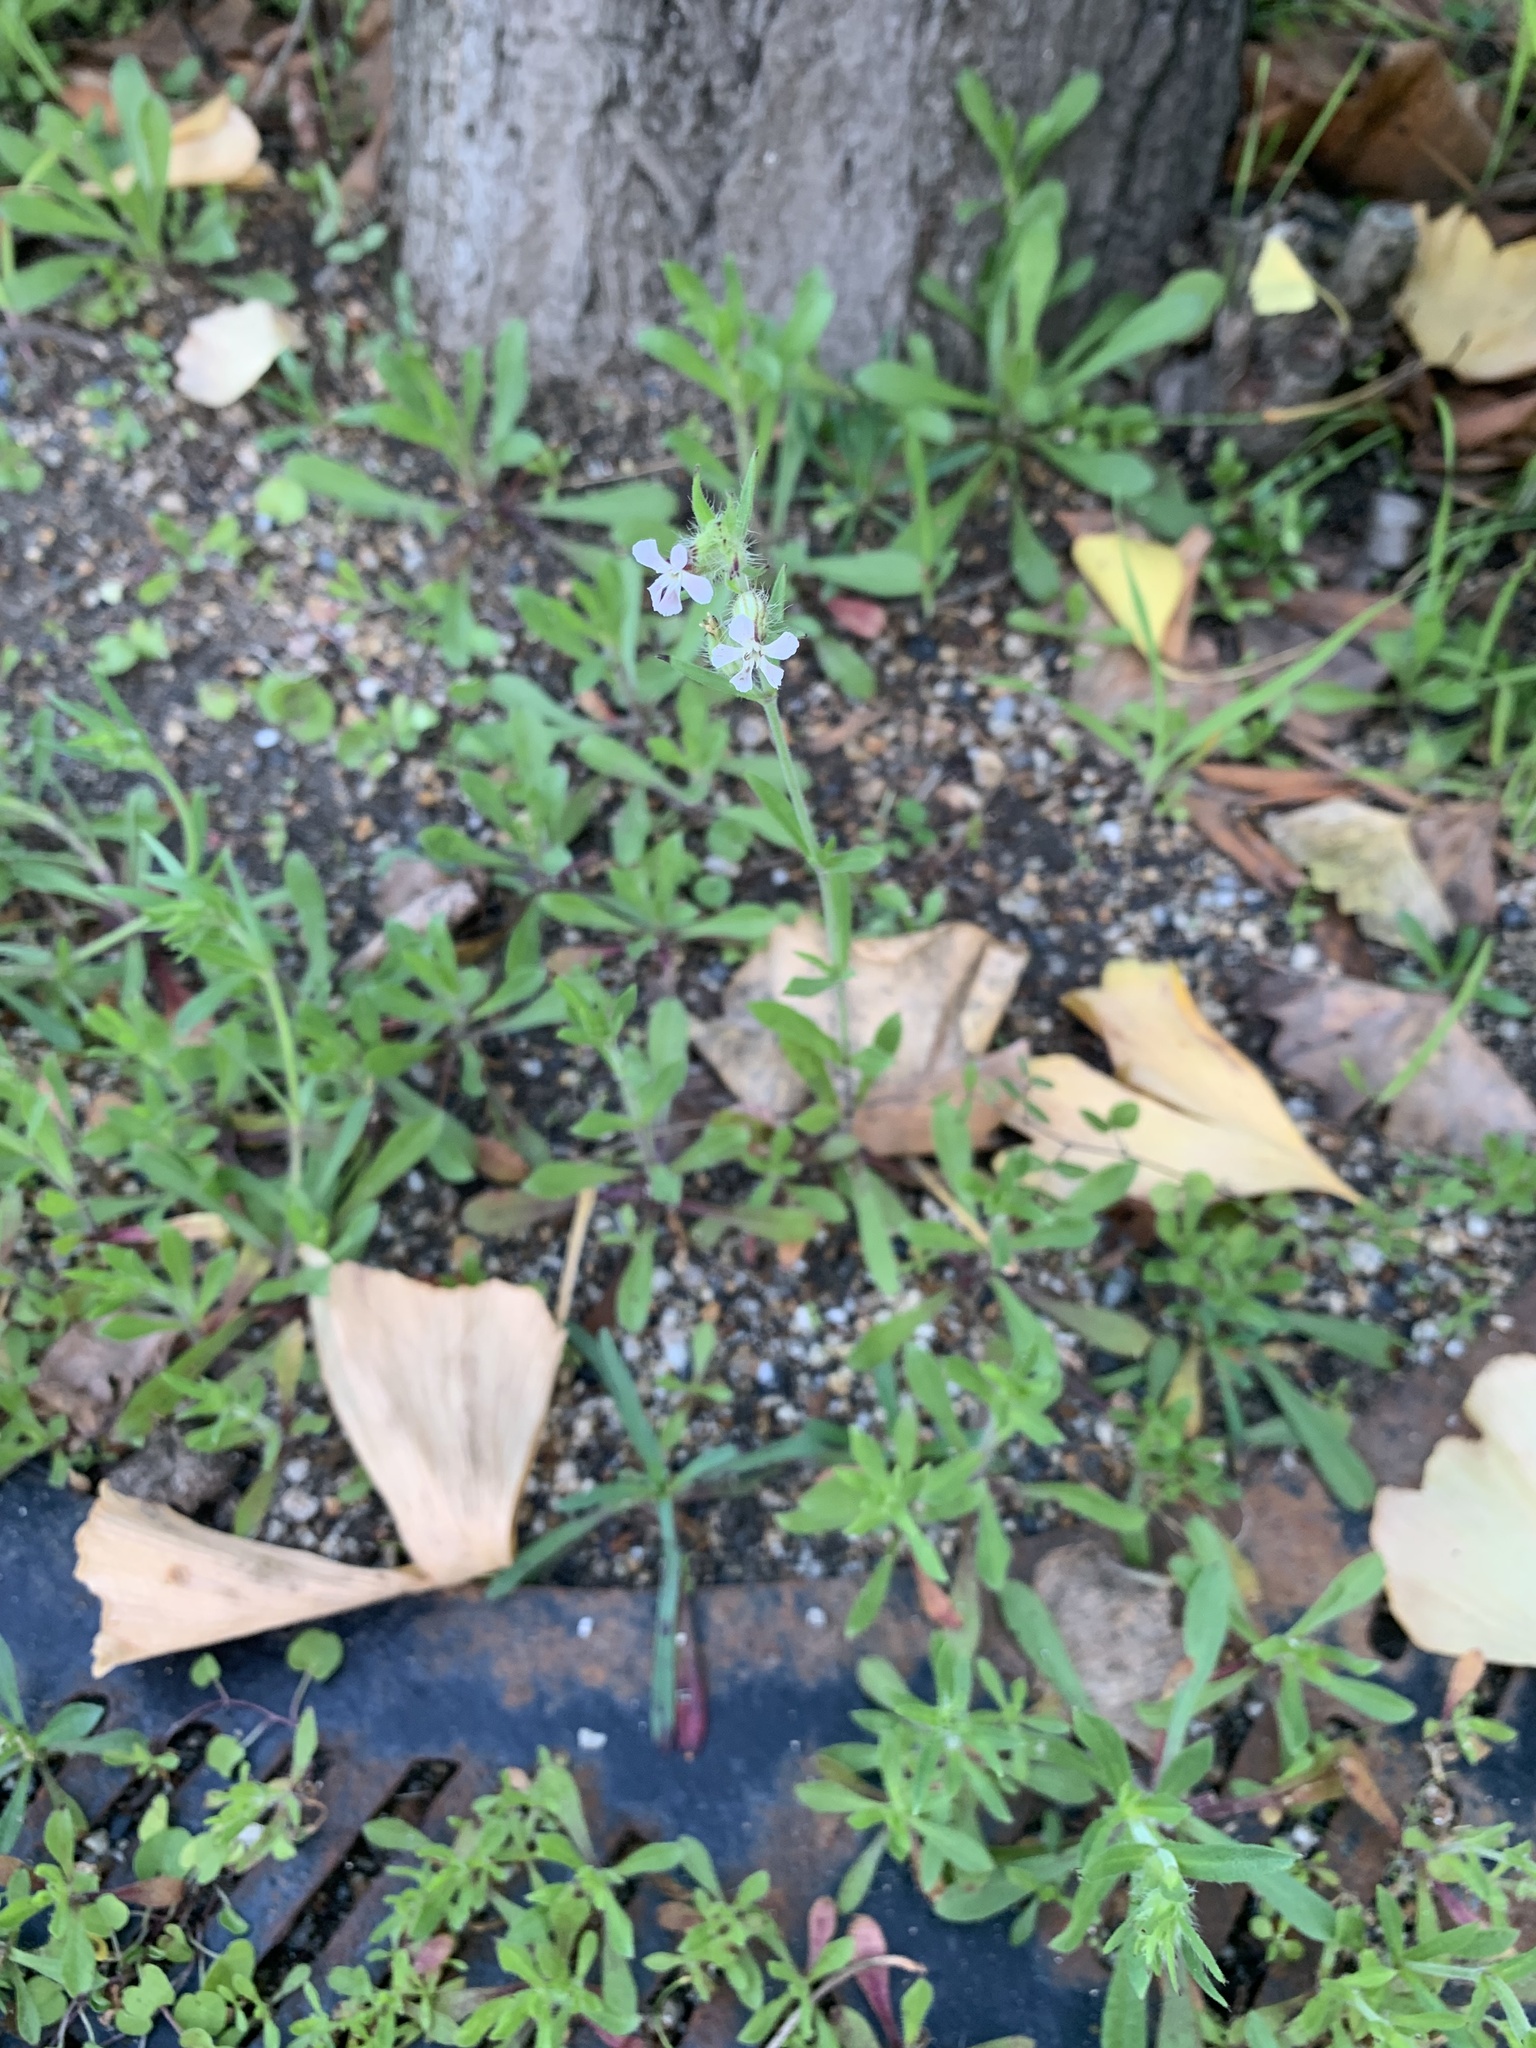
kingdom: Plantae
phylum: Tracheophyta
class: Magnoliopsida
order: Caryophyllales
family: Caryophyllaceae
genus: Silene
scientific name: Silene gallica
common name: Small-flowered catchfly
